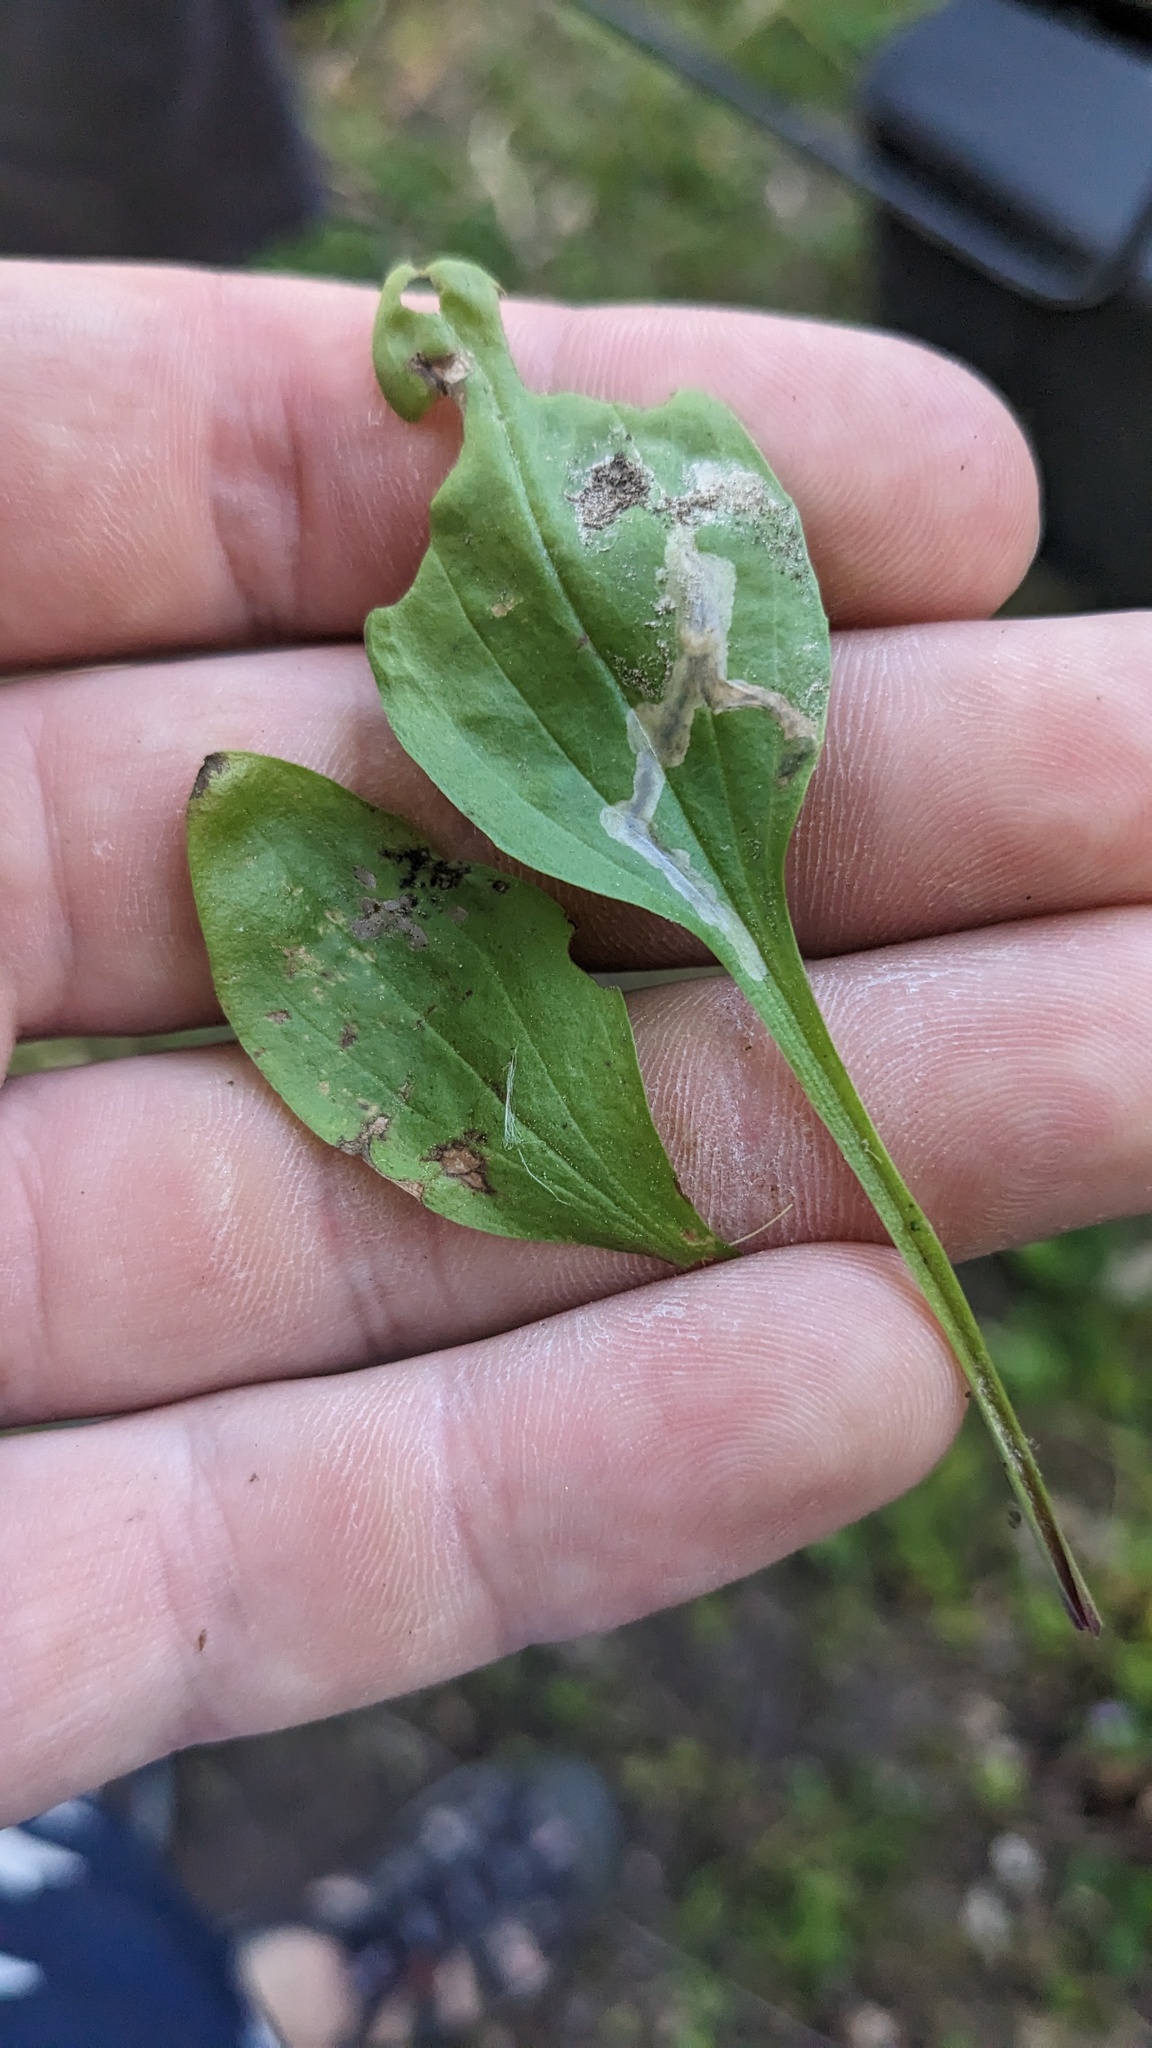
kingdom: Animalia
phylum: Arthropoda
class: Insecta
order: Coleoptera
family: Chrysomelidae
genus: Dibolia
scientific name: Dibolia borealis
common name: Northern plantain flea beetle
